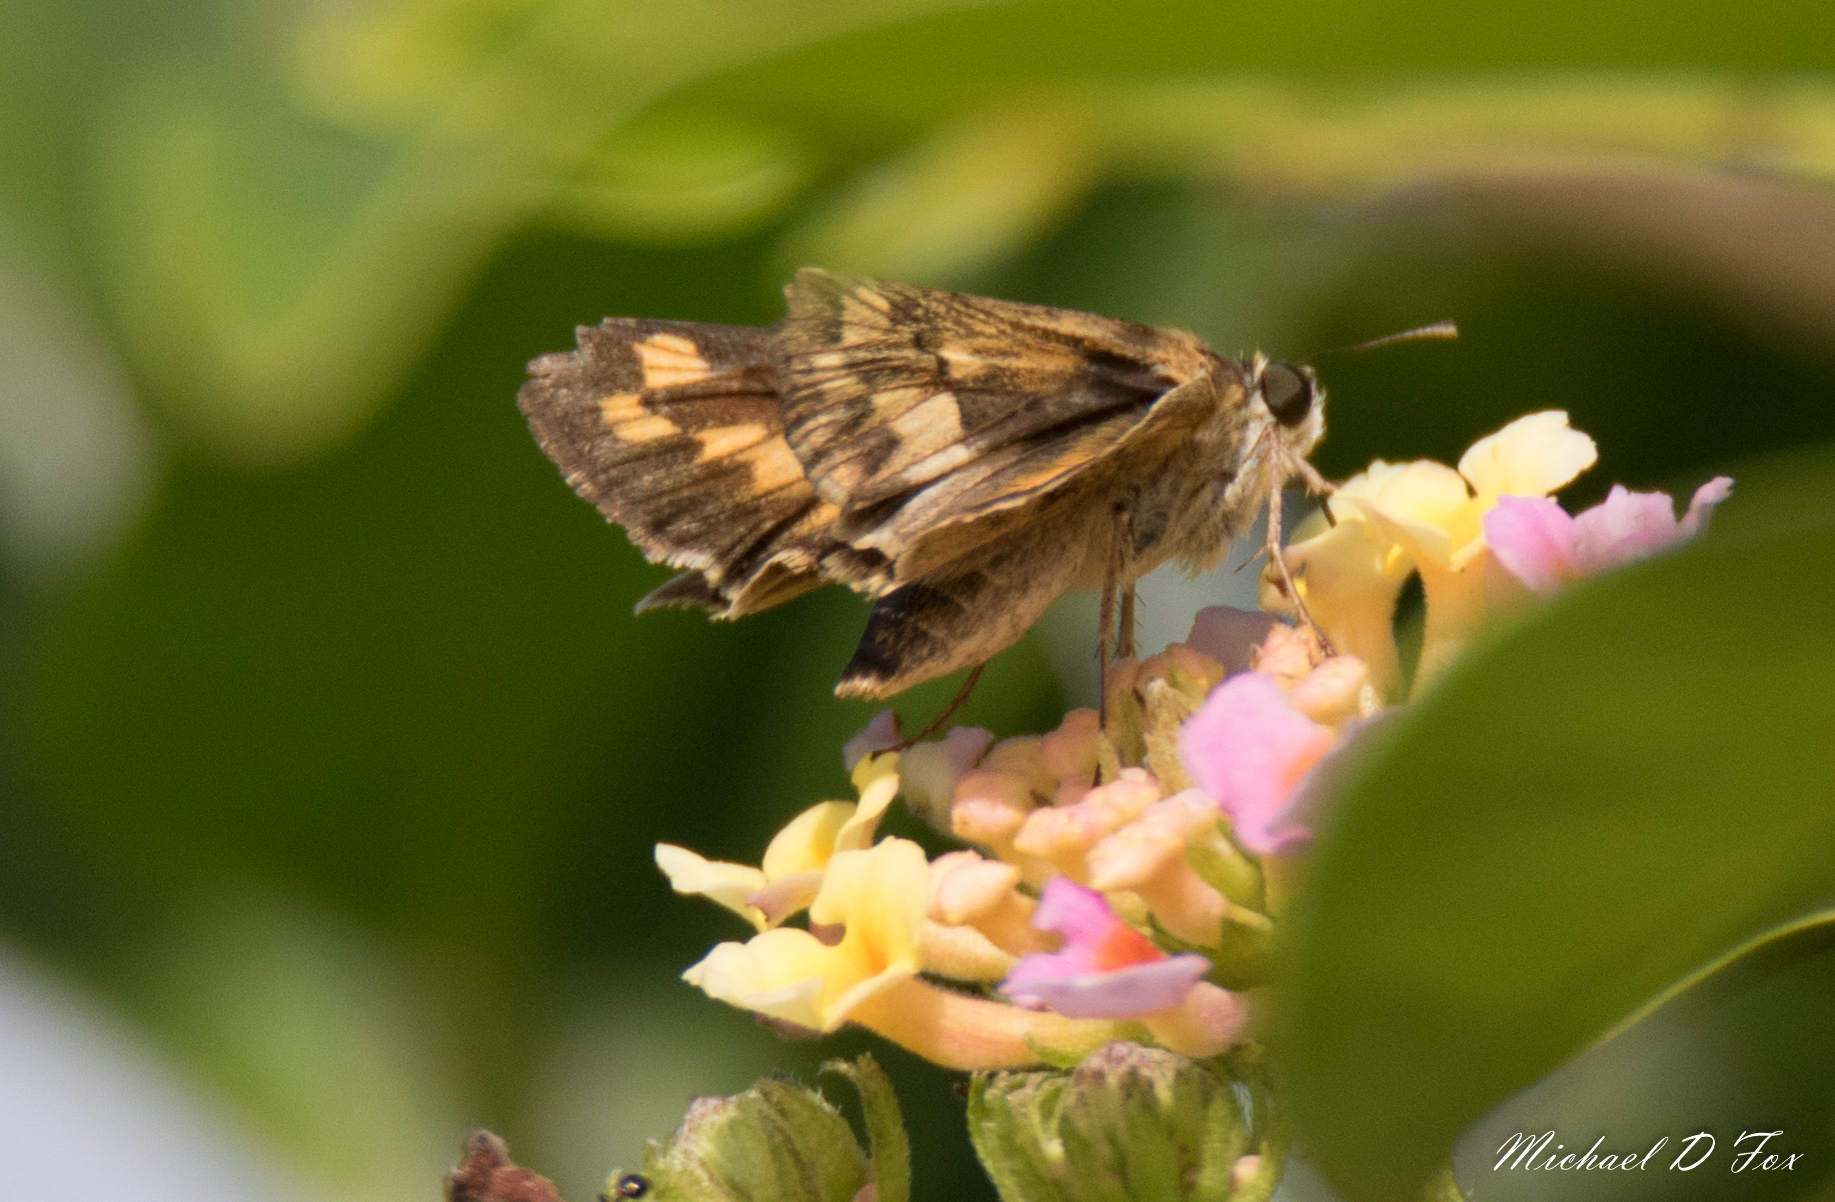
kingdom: Animalia
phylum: Arthropoda
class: Insecta
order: Lepidoptera
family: Hesperiidae
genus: Hylephila
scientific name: Hylephila phyleus
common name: Fiery skipper
